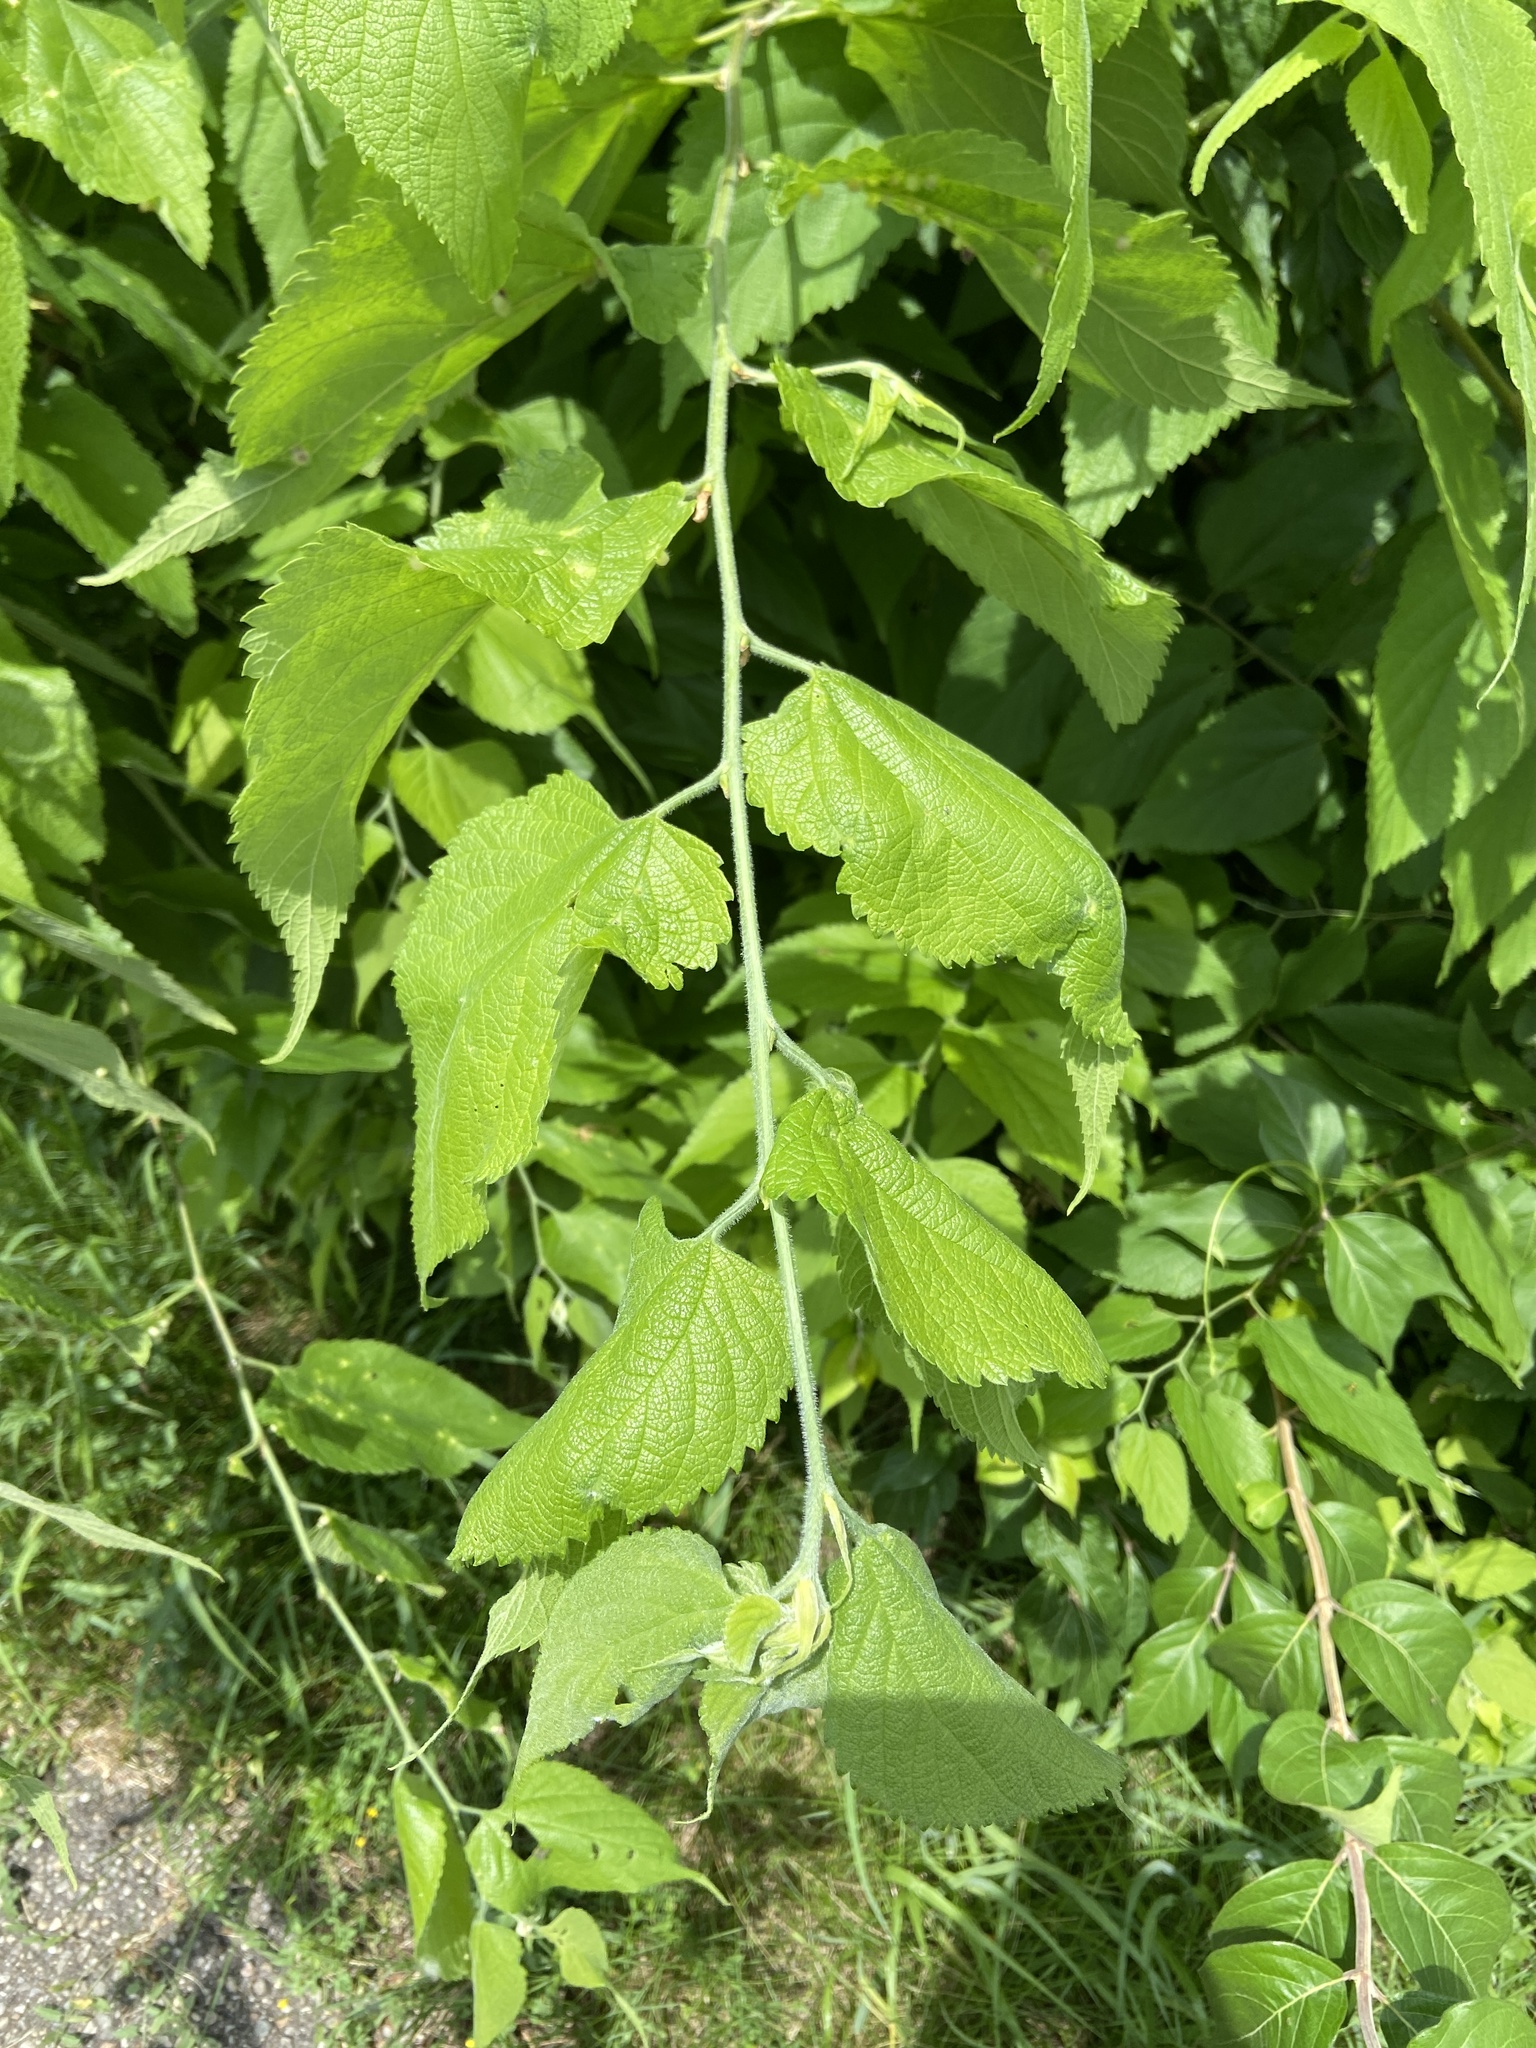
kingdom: Plantae
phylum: Tracheophyta
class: Magnoliopsida
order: Rosales
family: Cannabaceae
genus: Celtis
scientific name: Celtis occidentalis
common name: Common hackberry
